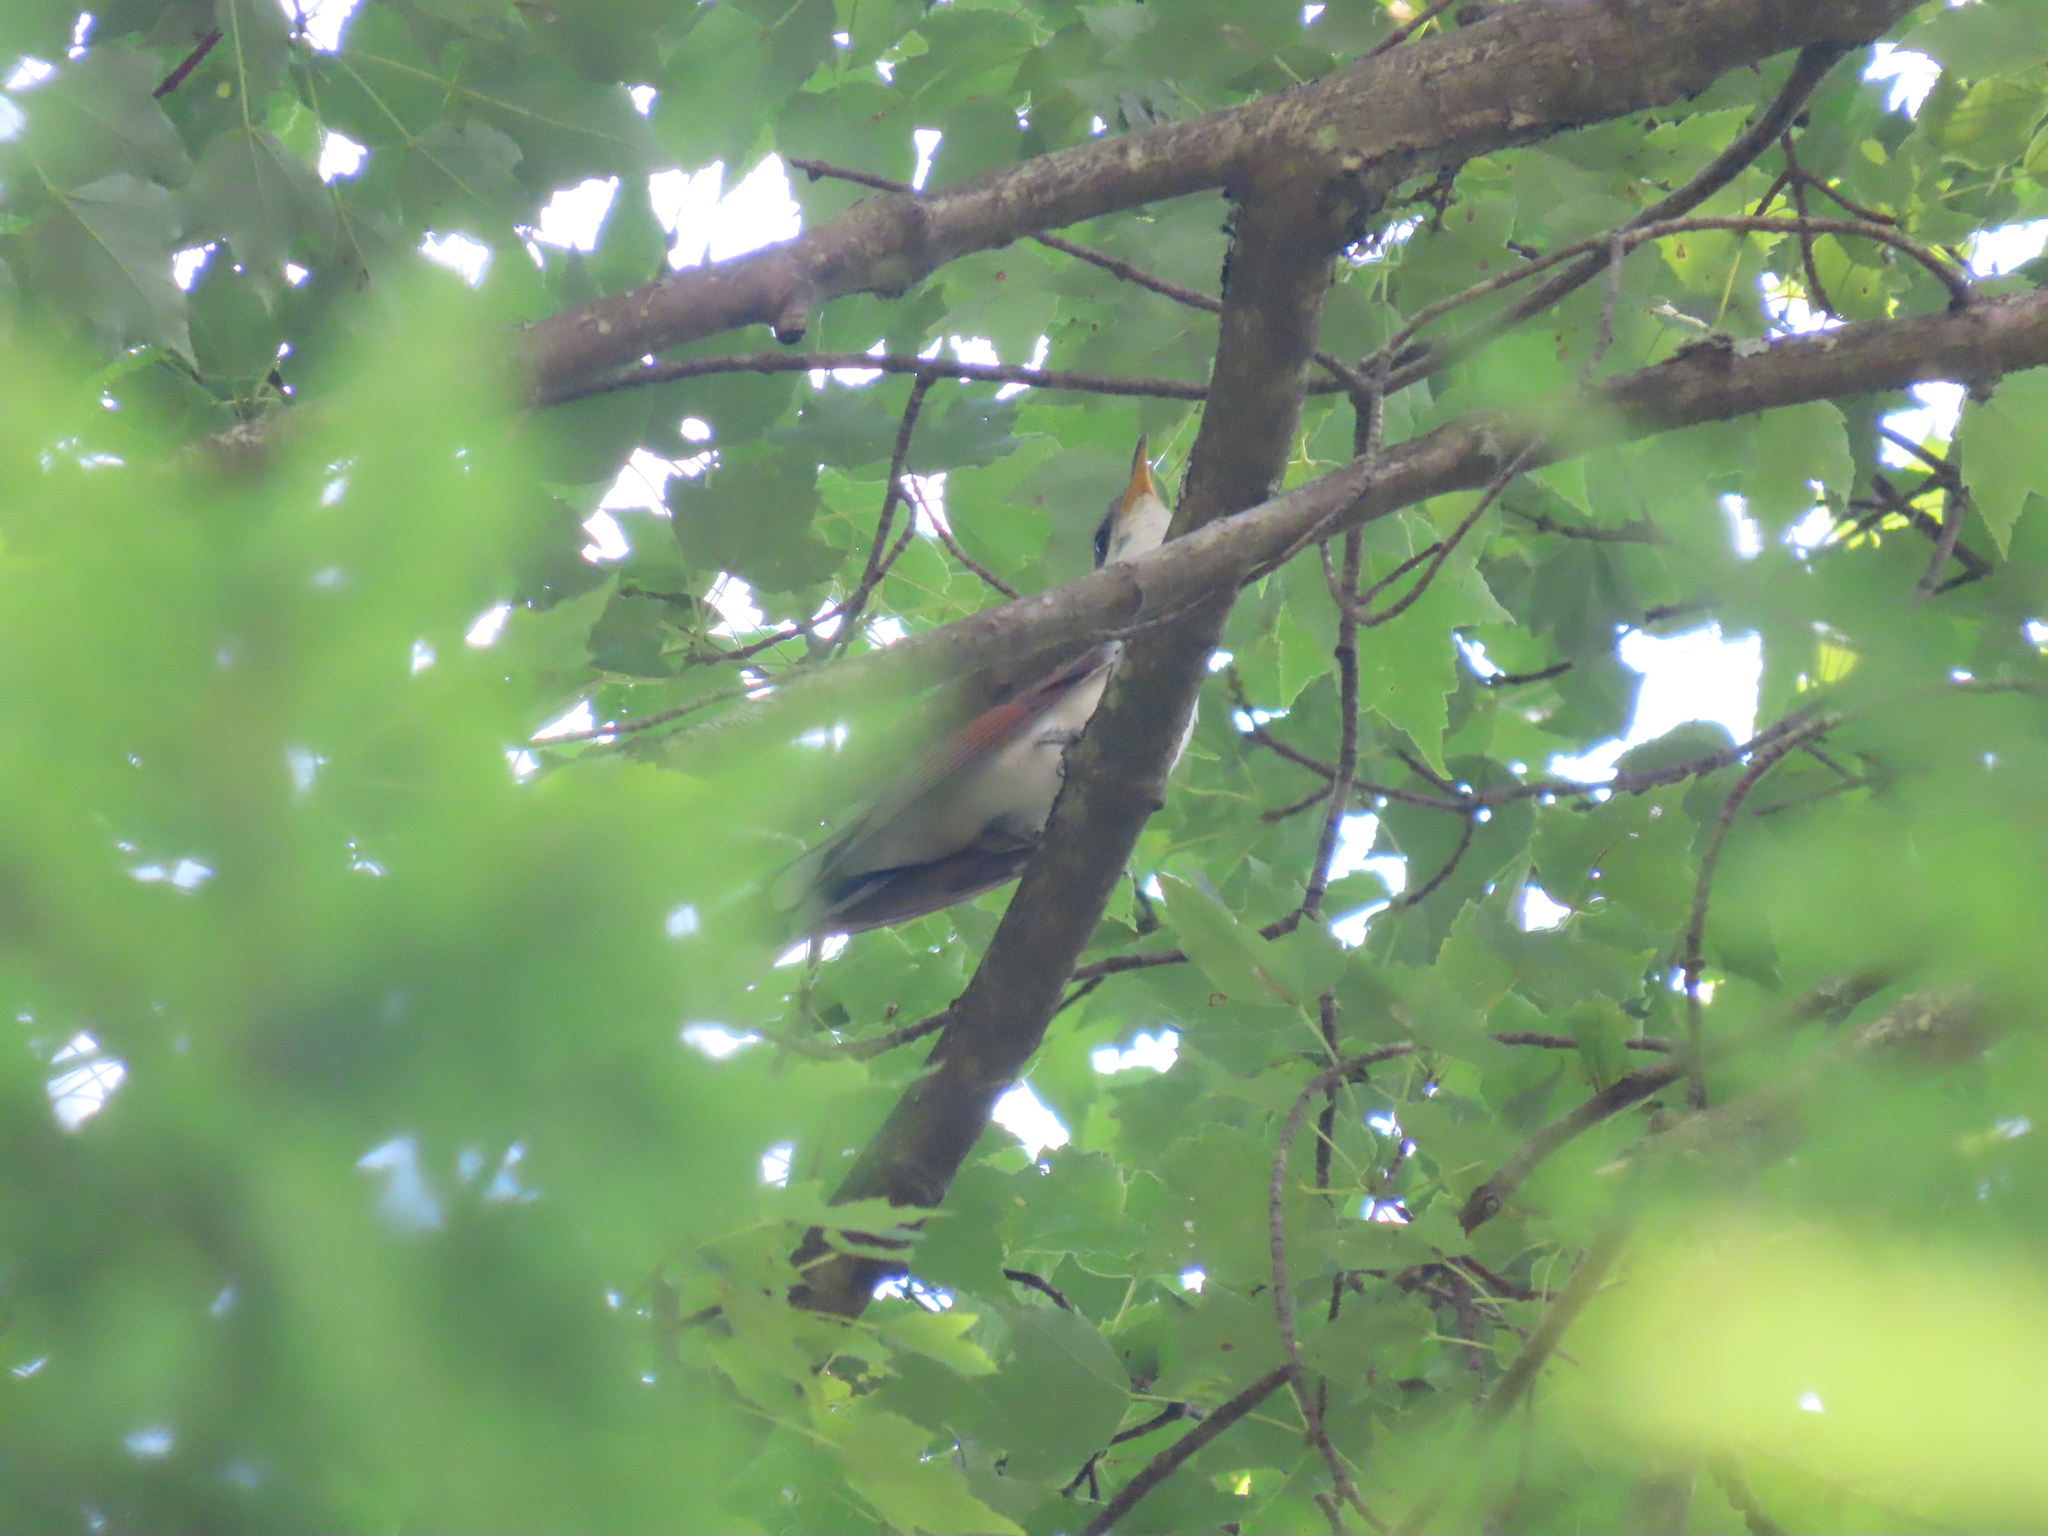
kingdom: Animalia
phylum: Chordata
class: Aves
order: Cuculiformes
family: Cuculidae
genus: Coccyzus
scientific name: Coccyzus americanus
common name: Yellow-billed cuckoo
